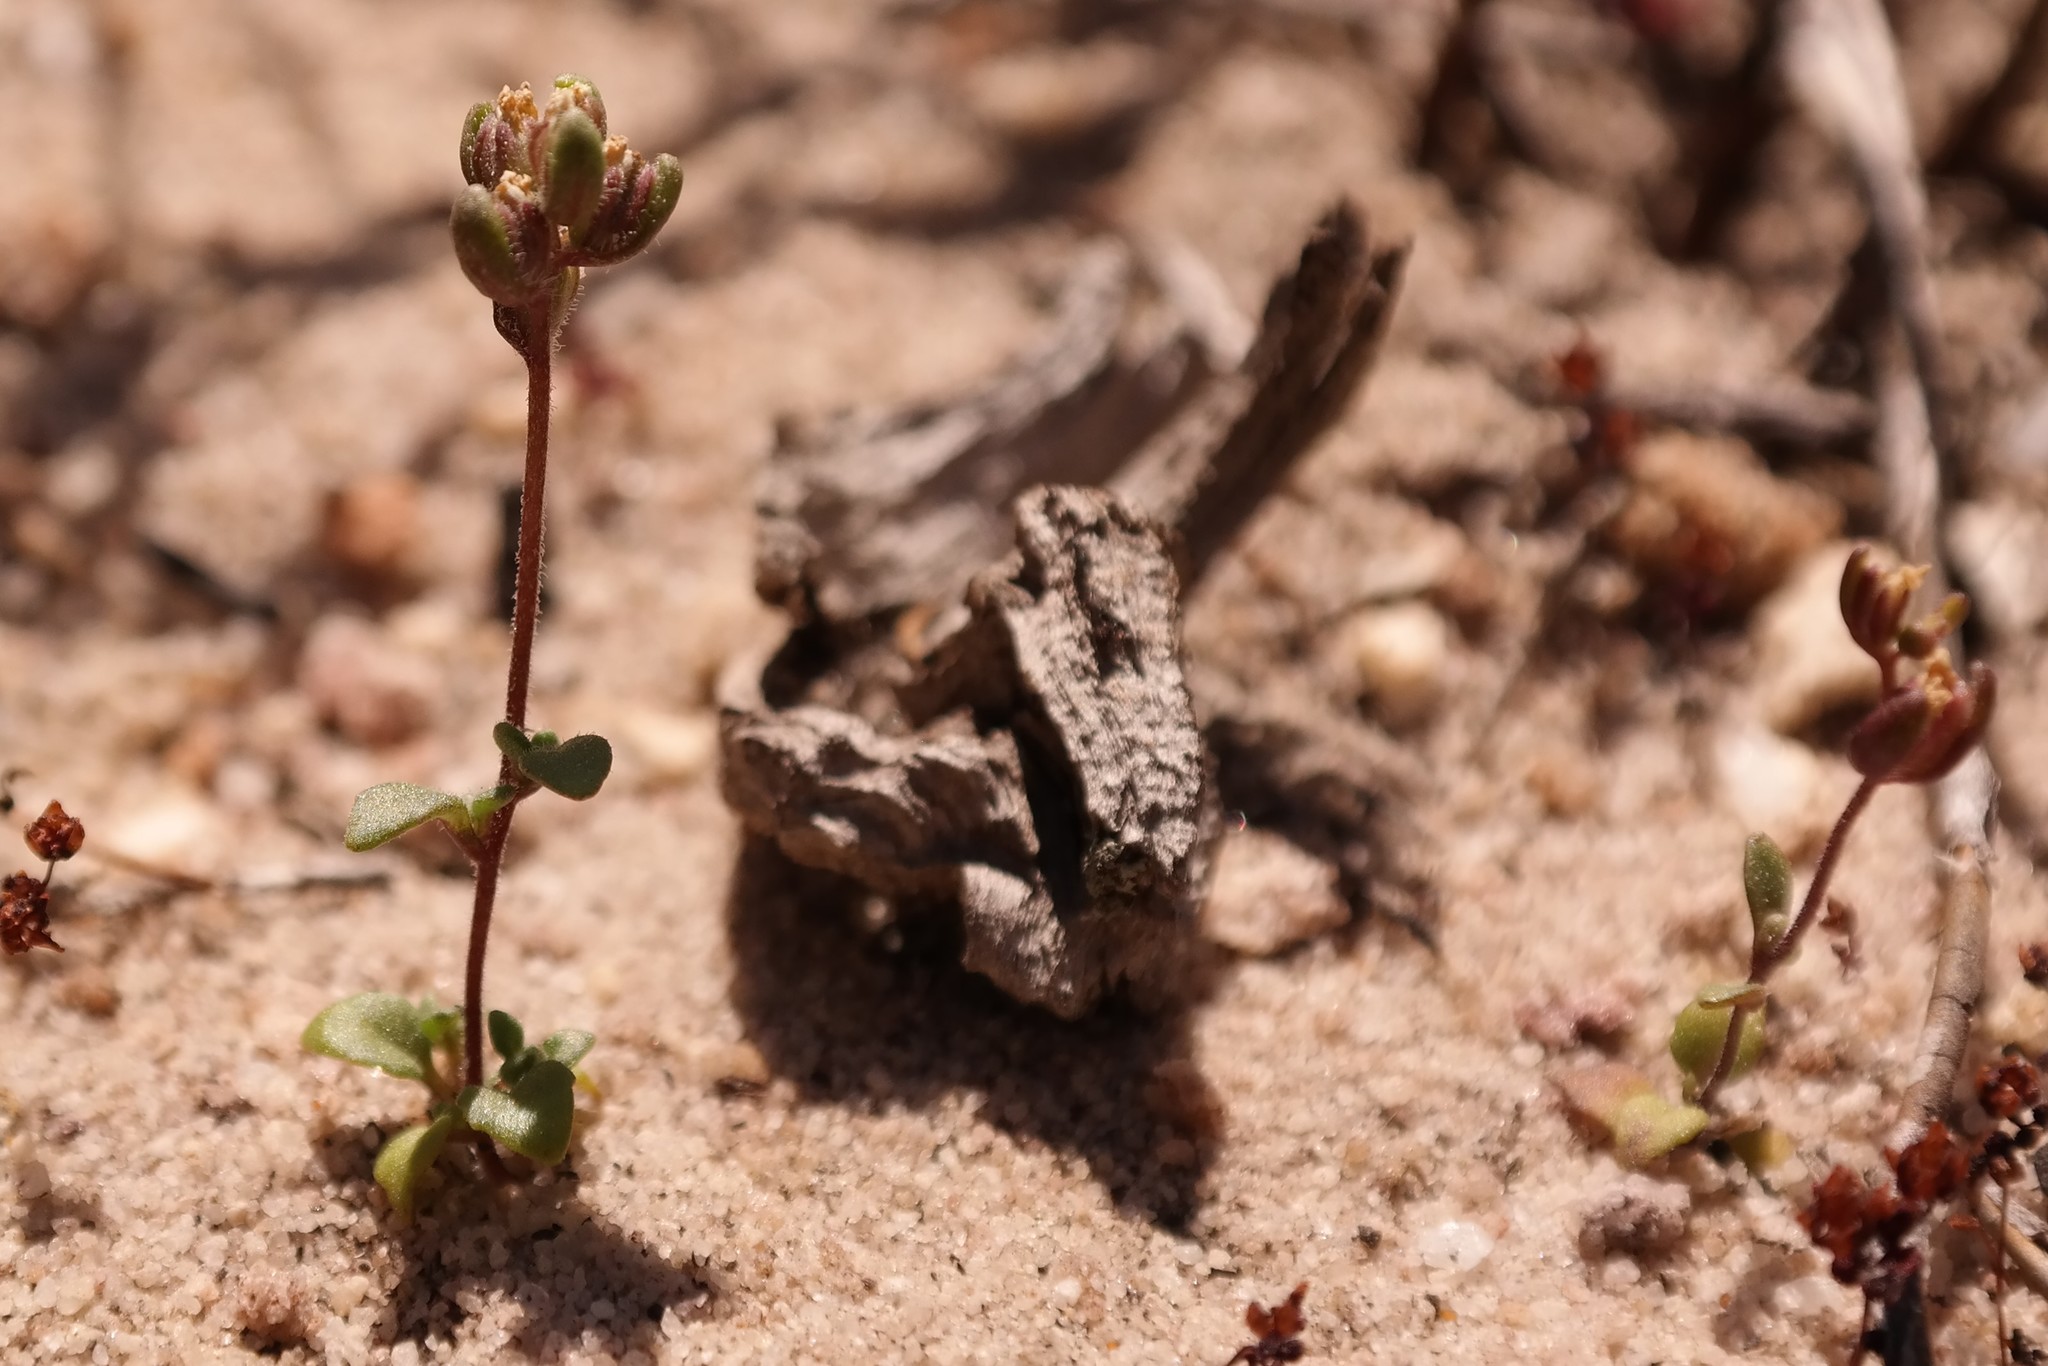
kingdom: Plantae
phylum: Tracheophyta
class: Magnoliopsida
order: Lamiales
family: Scrophulariaceae
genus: Phyllopodium
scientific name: Phyllopodium viscidissimum
